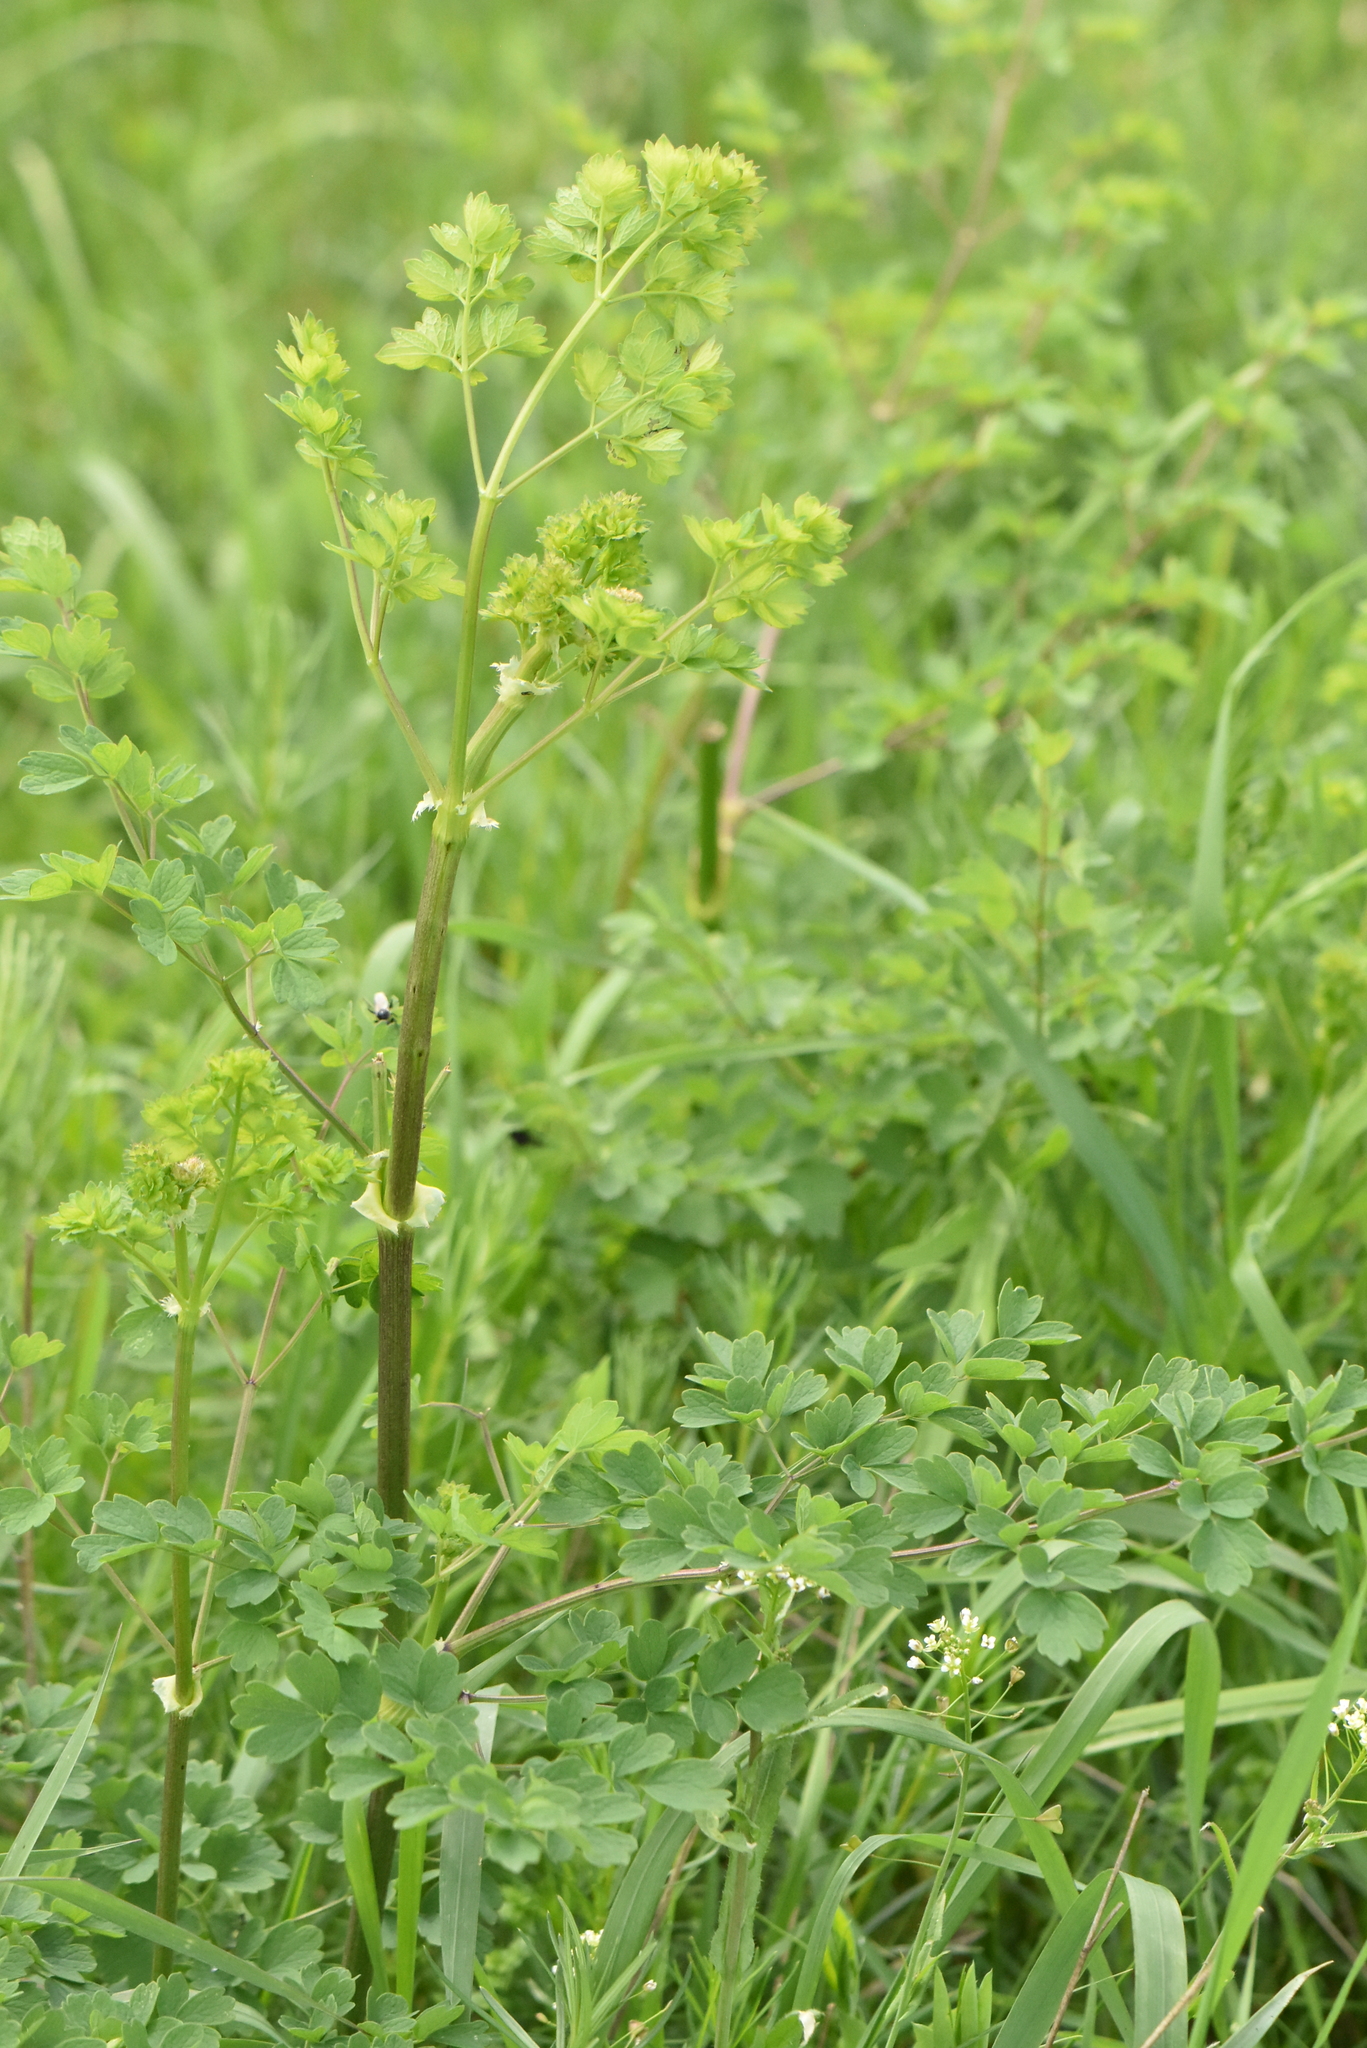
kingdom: Plantae
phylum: Tracheophyta
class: Magnoliopsida
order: Ranunculales
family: Ranunculaceae
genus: Thalictrum
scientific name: Thalictrum minus
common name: Lesser meadow-rue
